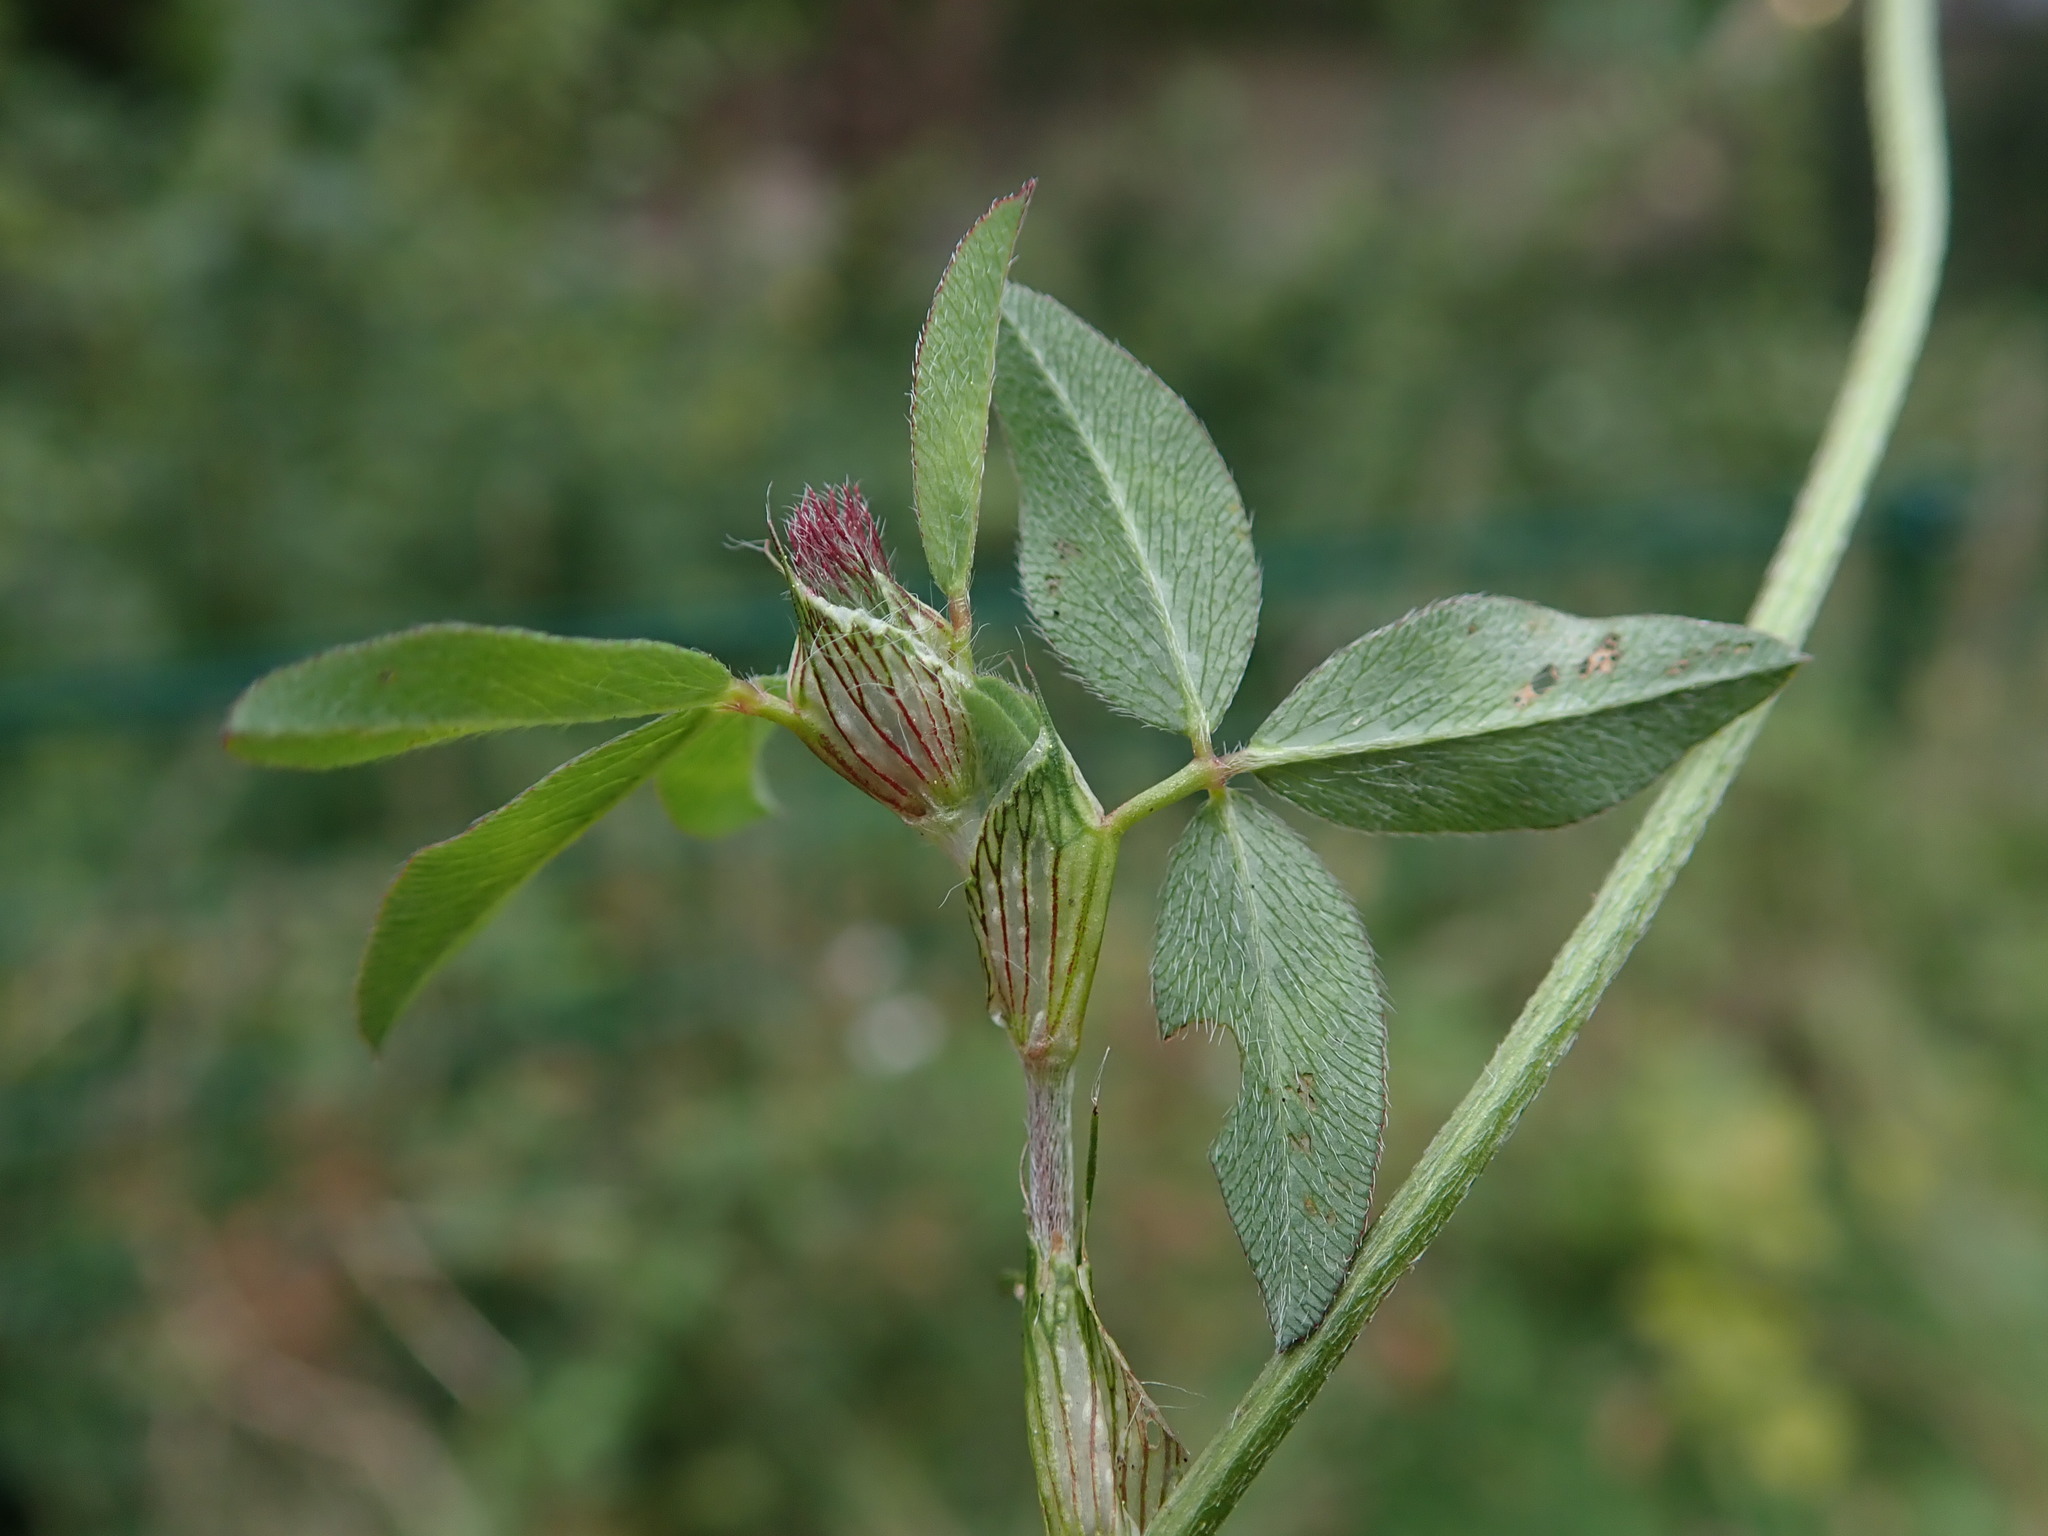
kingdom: Plantae
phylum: Tracheophyta
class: Magnoliopsida
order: Fabales
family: Fabaceae
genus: Trifolium
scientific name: Trifolium pratense
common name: Red clover
